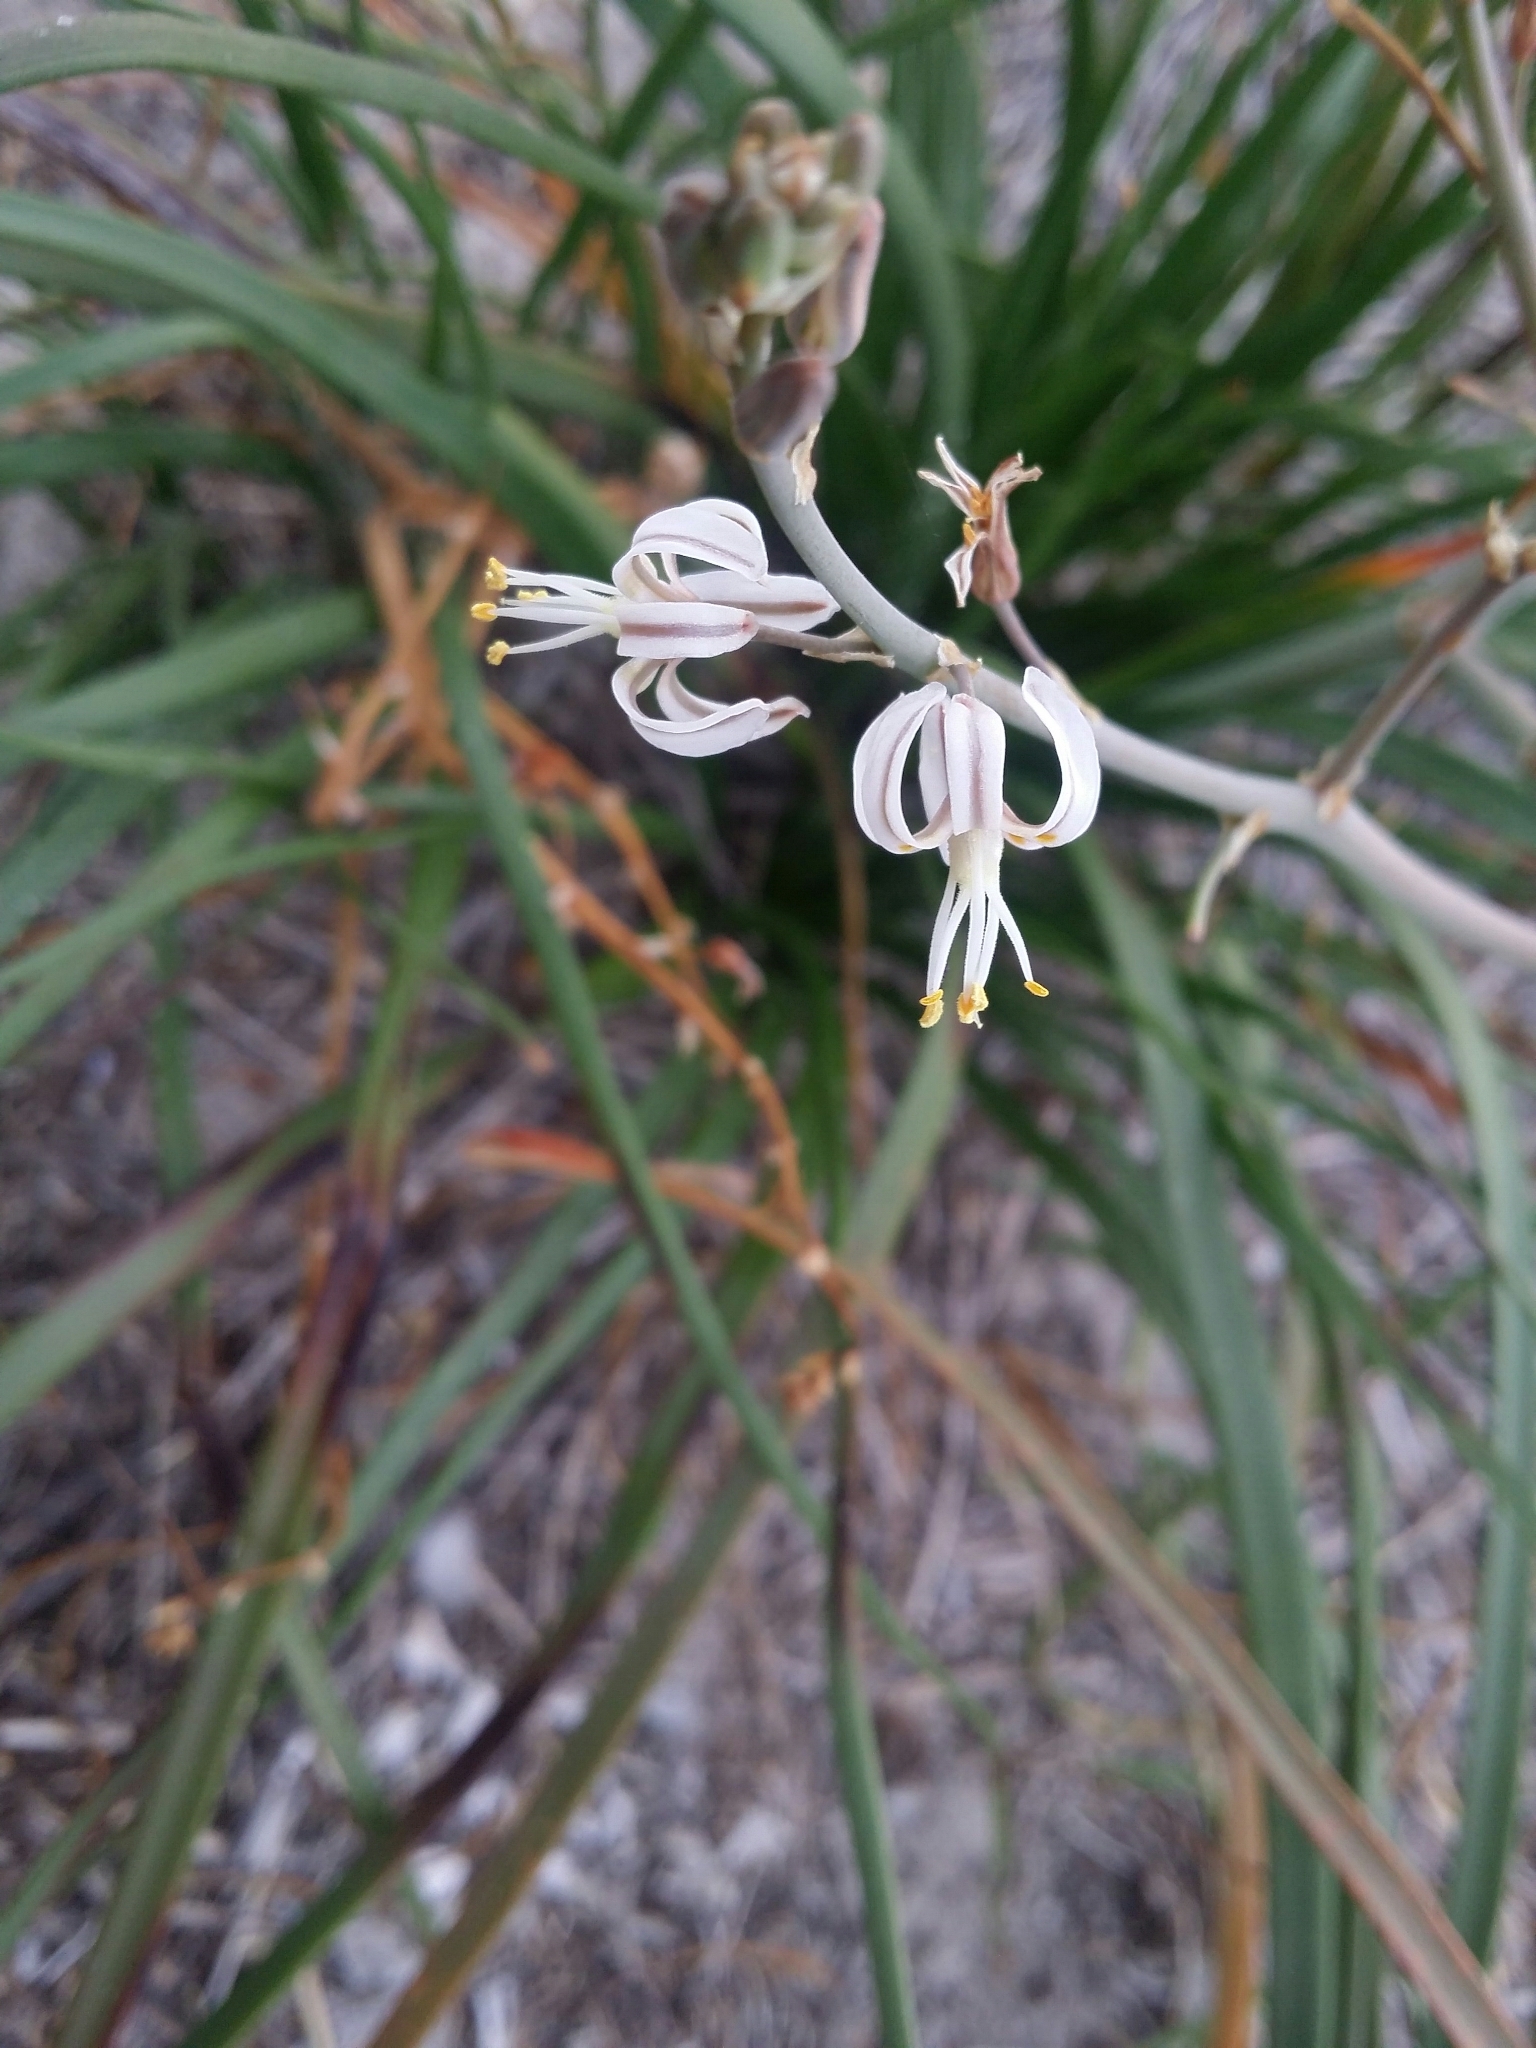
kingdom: Plantae
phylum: Tracheophyta
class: Liliopsida
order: Asparagales
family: Asphodelaceae
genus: Trachyandra
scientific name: Trachyandra divaricata
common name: Dune onionweed
